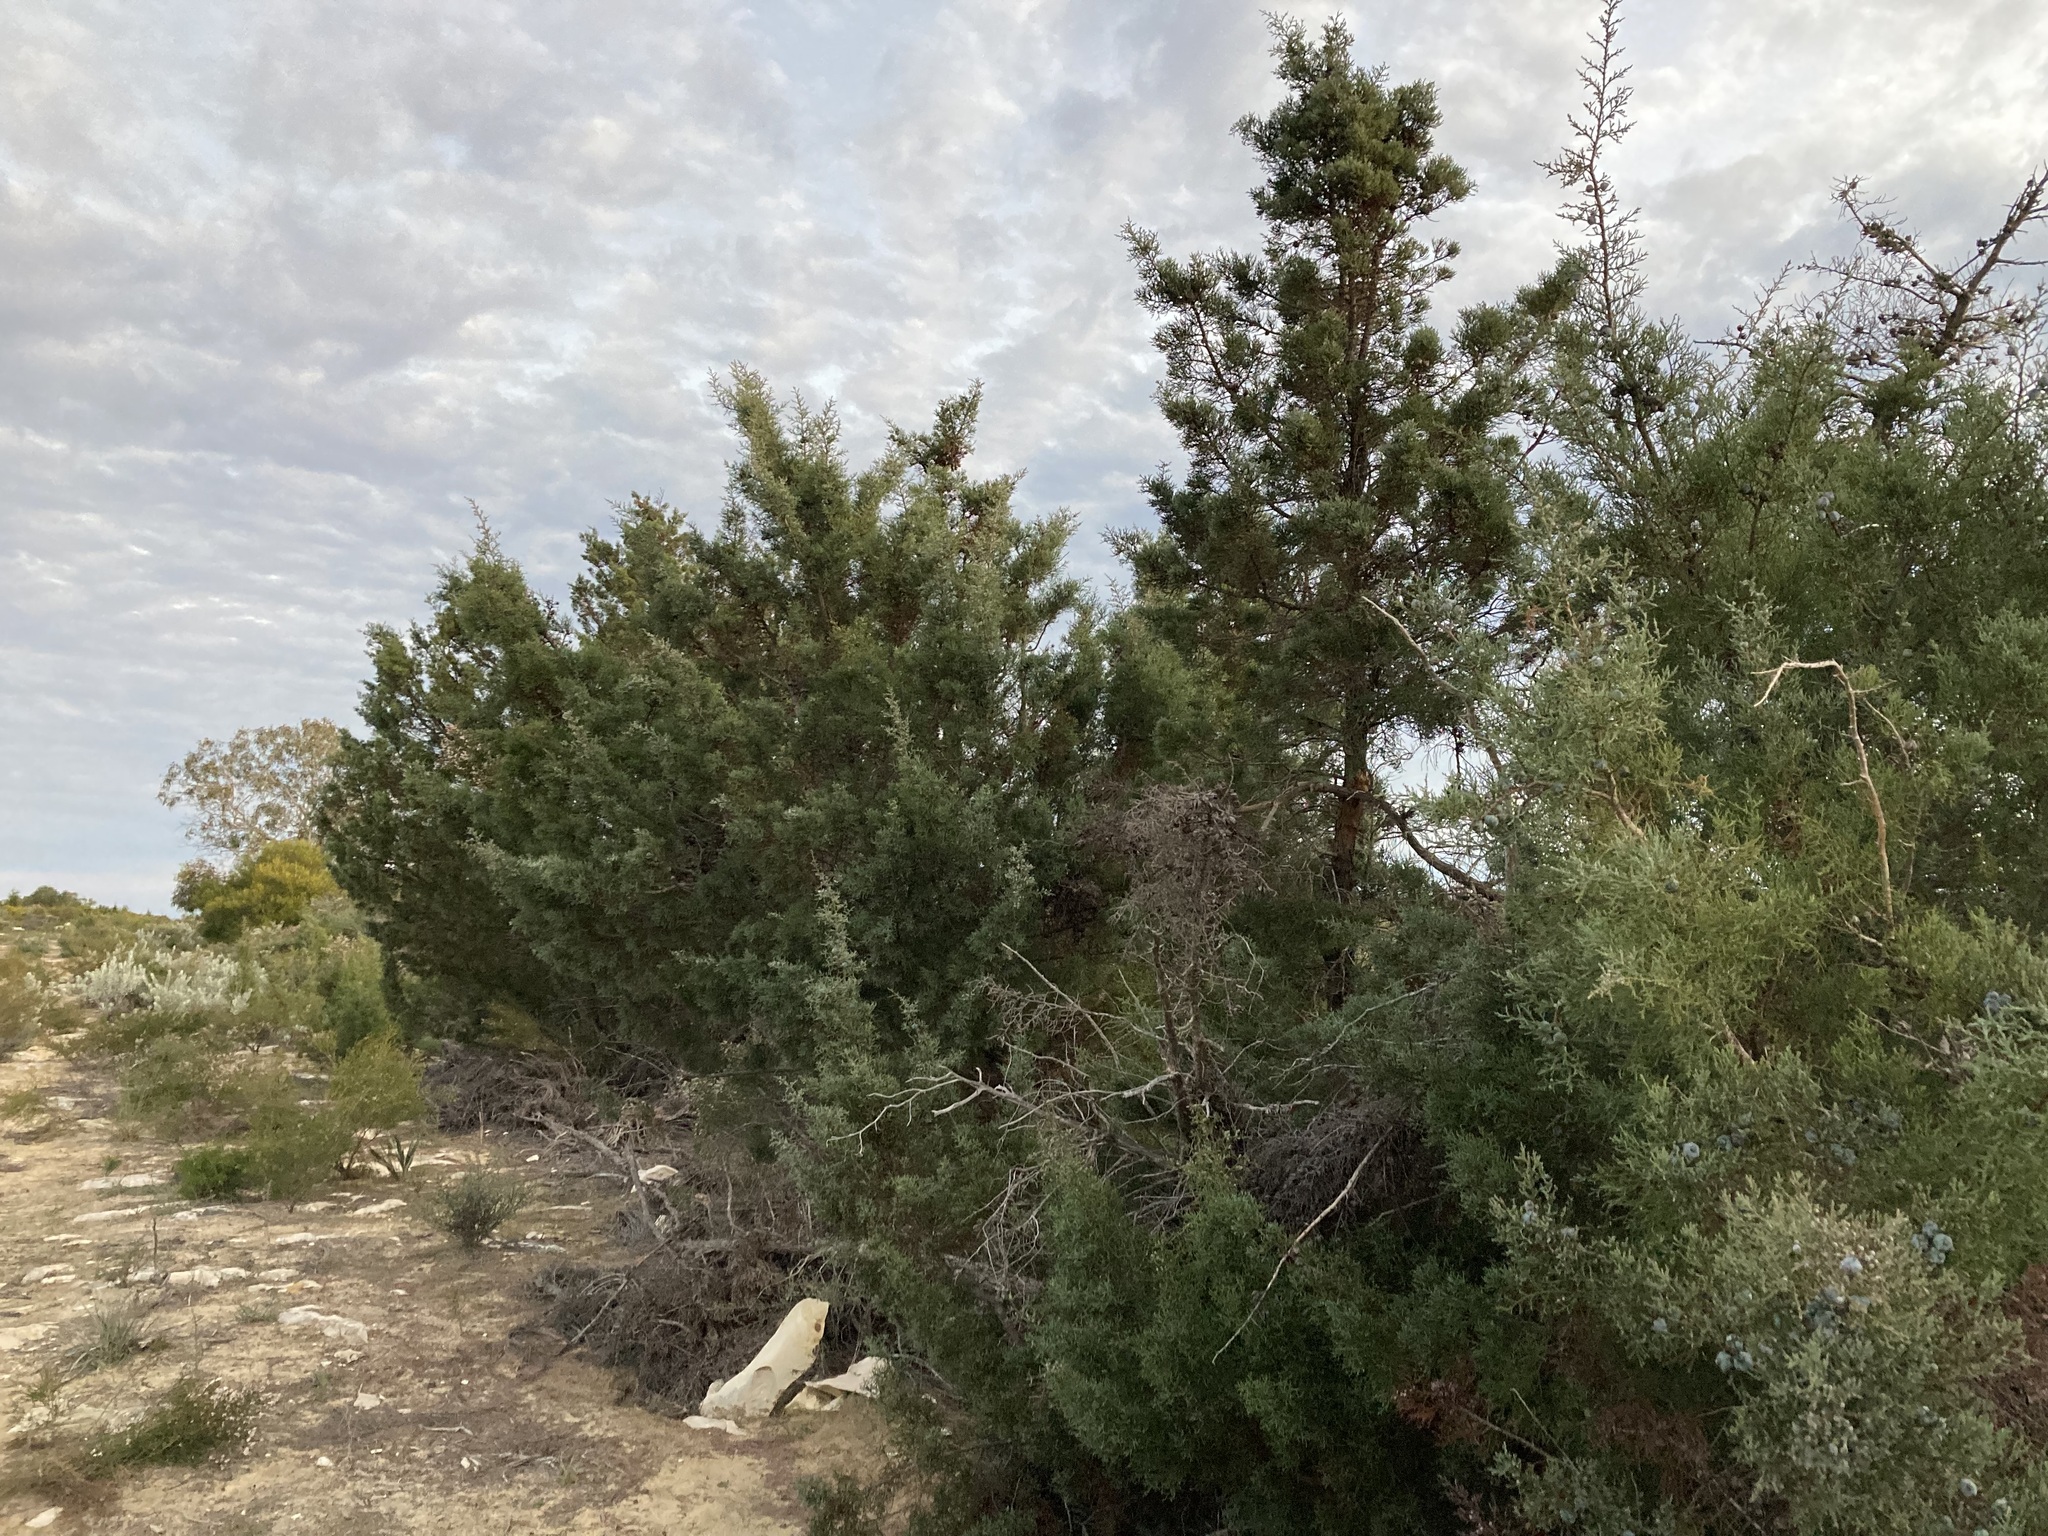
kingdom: Plantae
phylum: Tracheophyta
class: Pinopsida
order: Pinales
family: Cupressaceae
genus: Actinostrobus
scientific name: Actinostrobus arenarius
